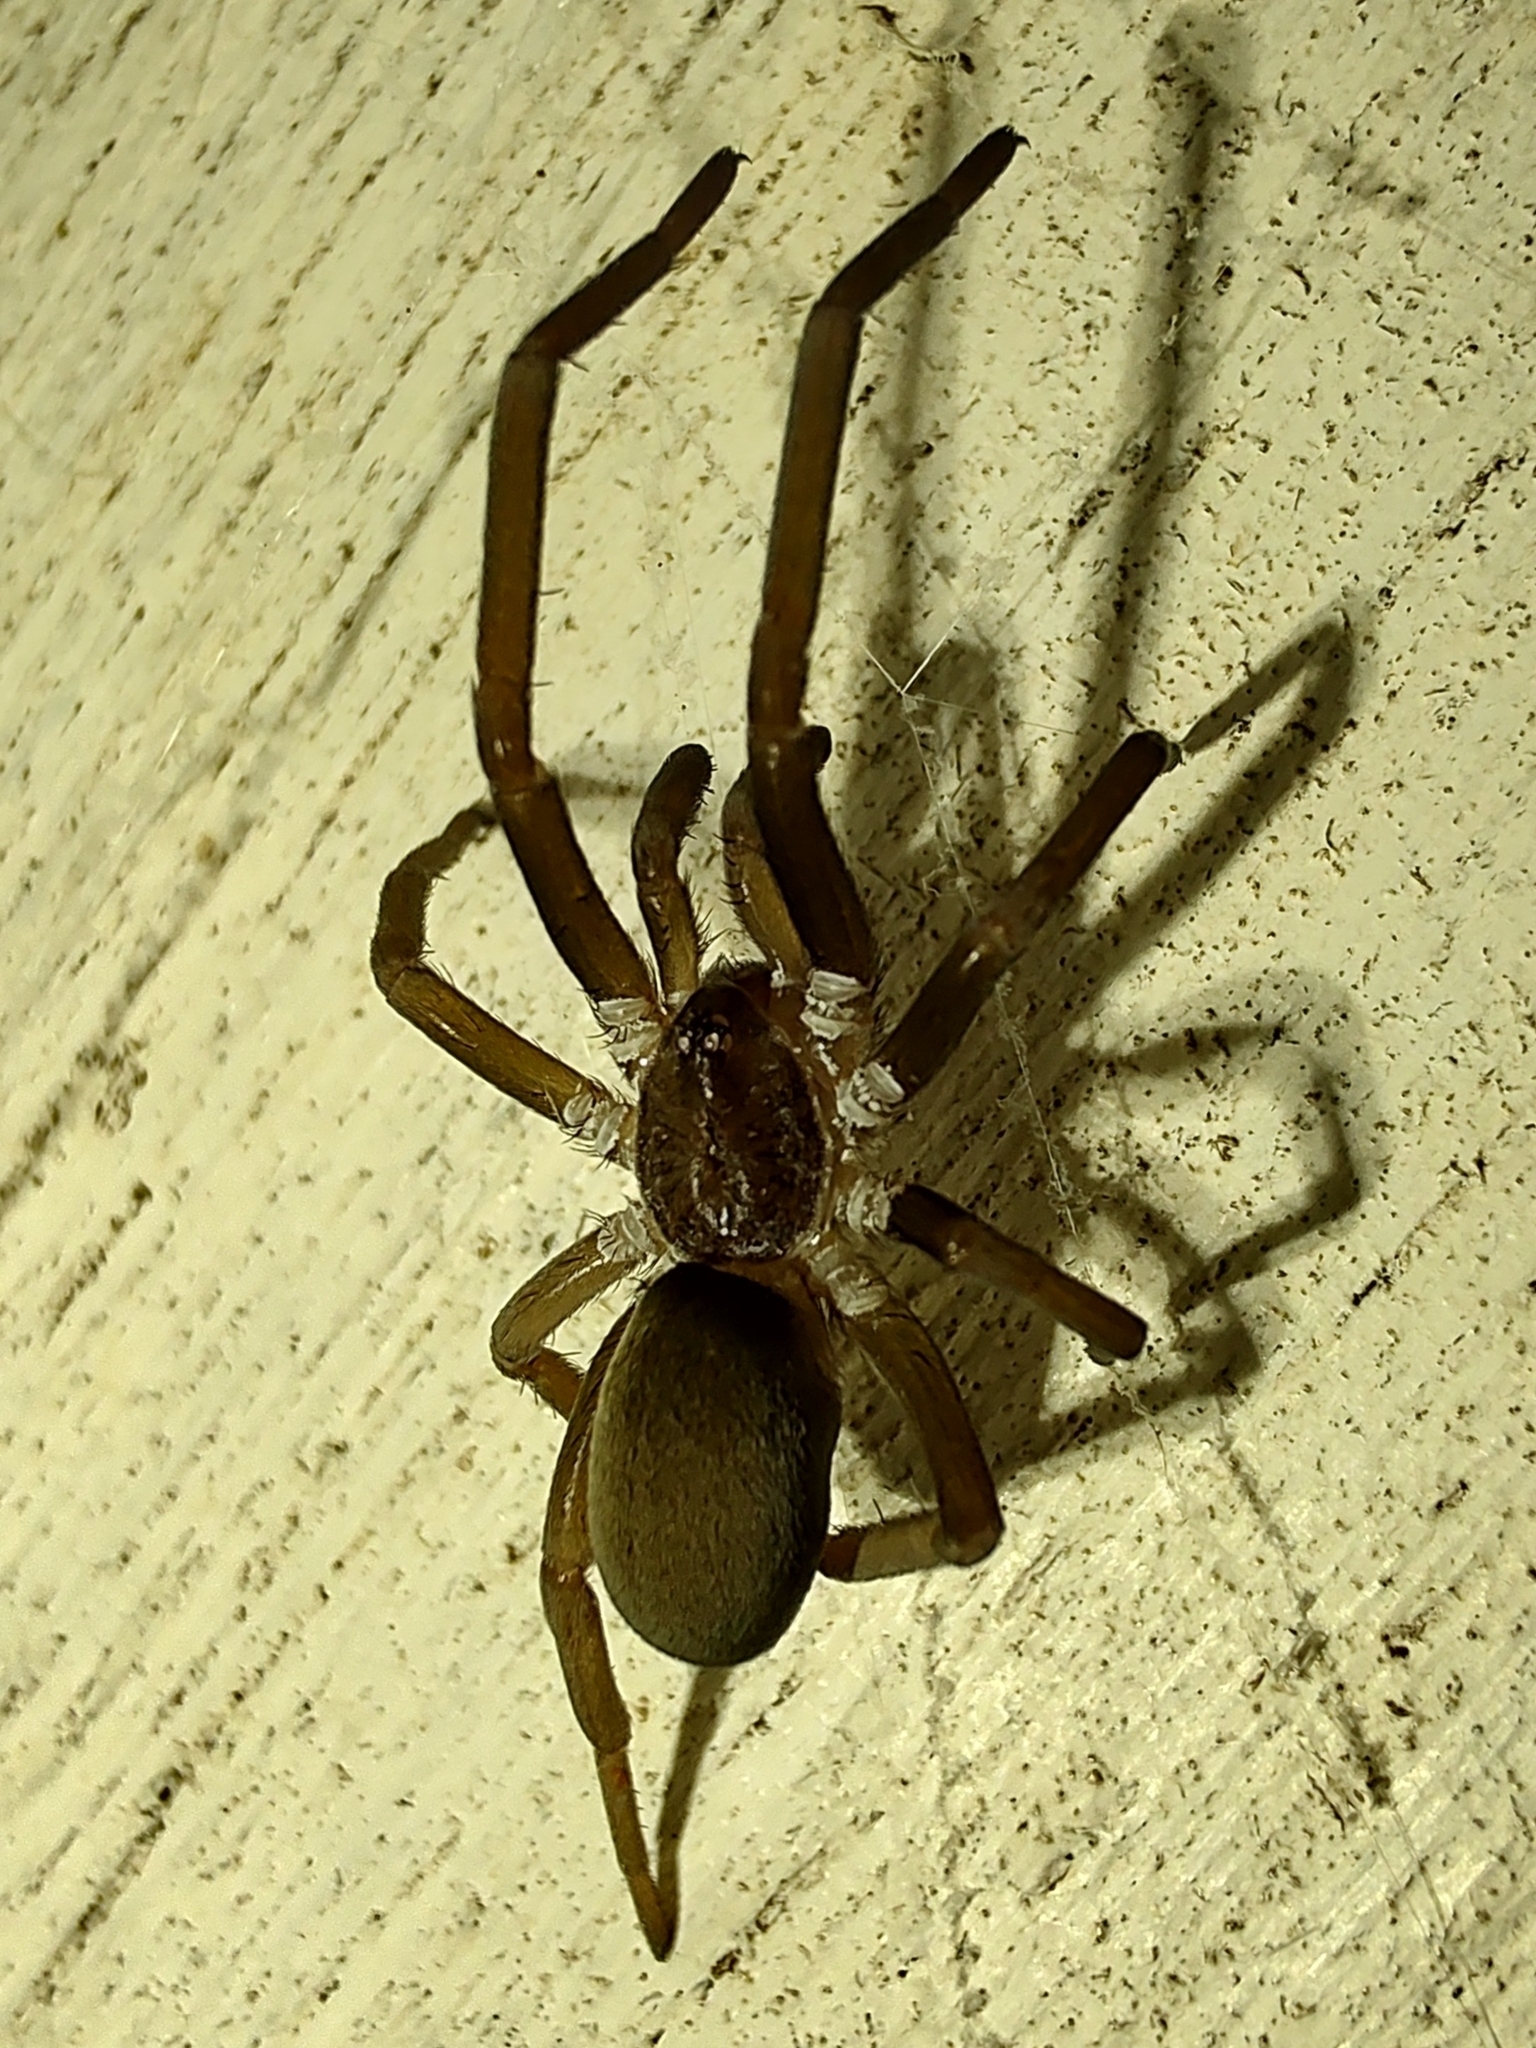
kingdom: Animalia
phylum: Arthropoda
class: Arachnida
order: Araneae
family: Filistatidae
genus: Kukulcania
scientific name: Kukulcania hibernalis
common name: Crevice weaver
